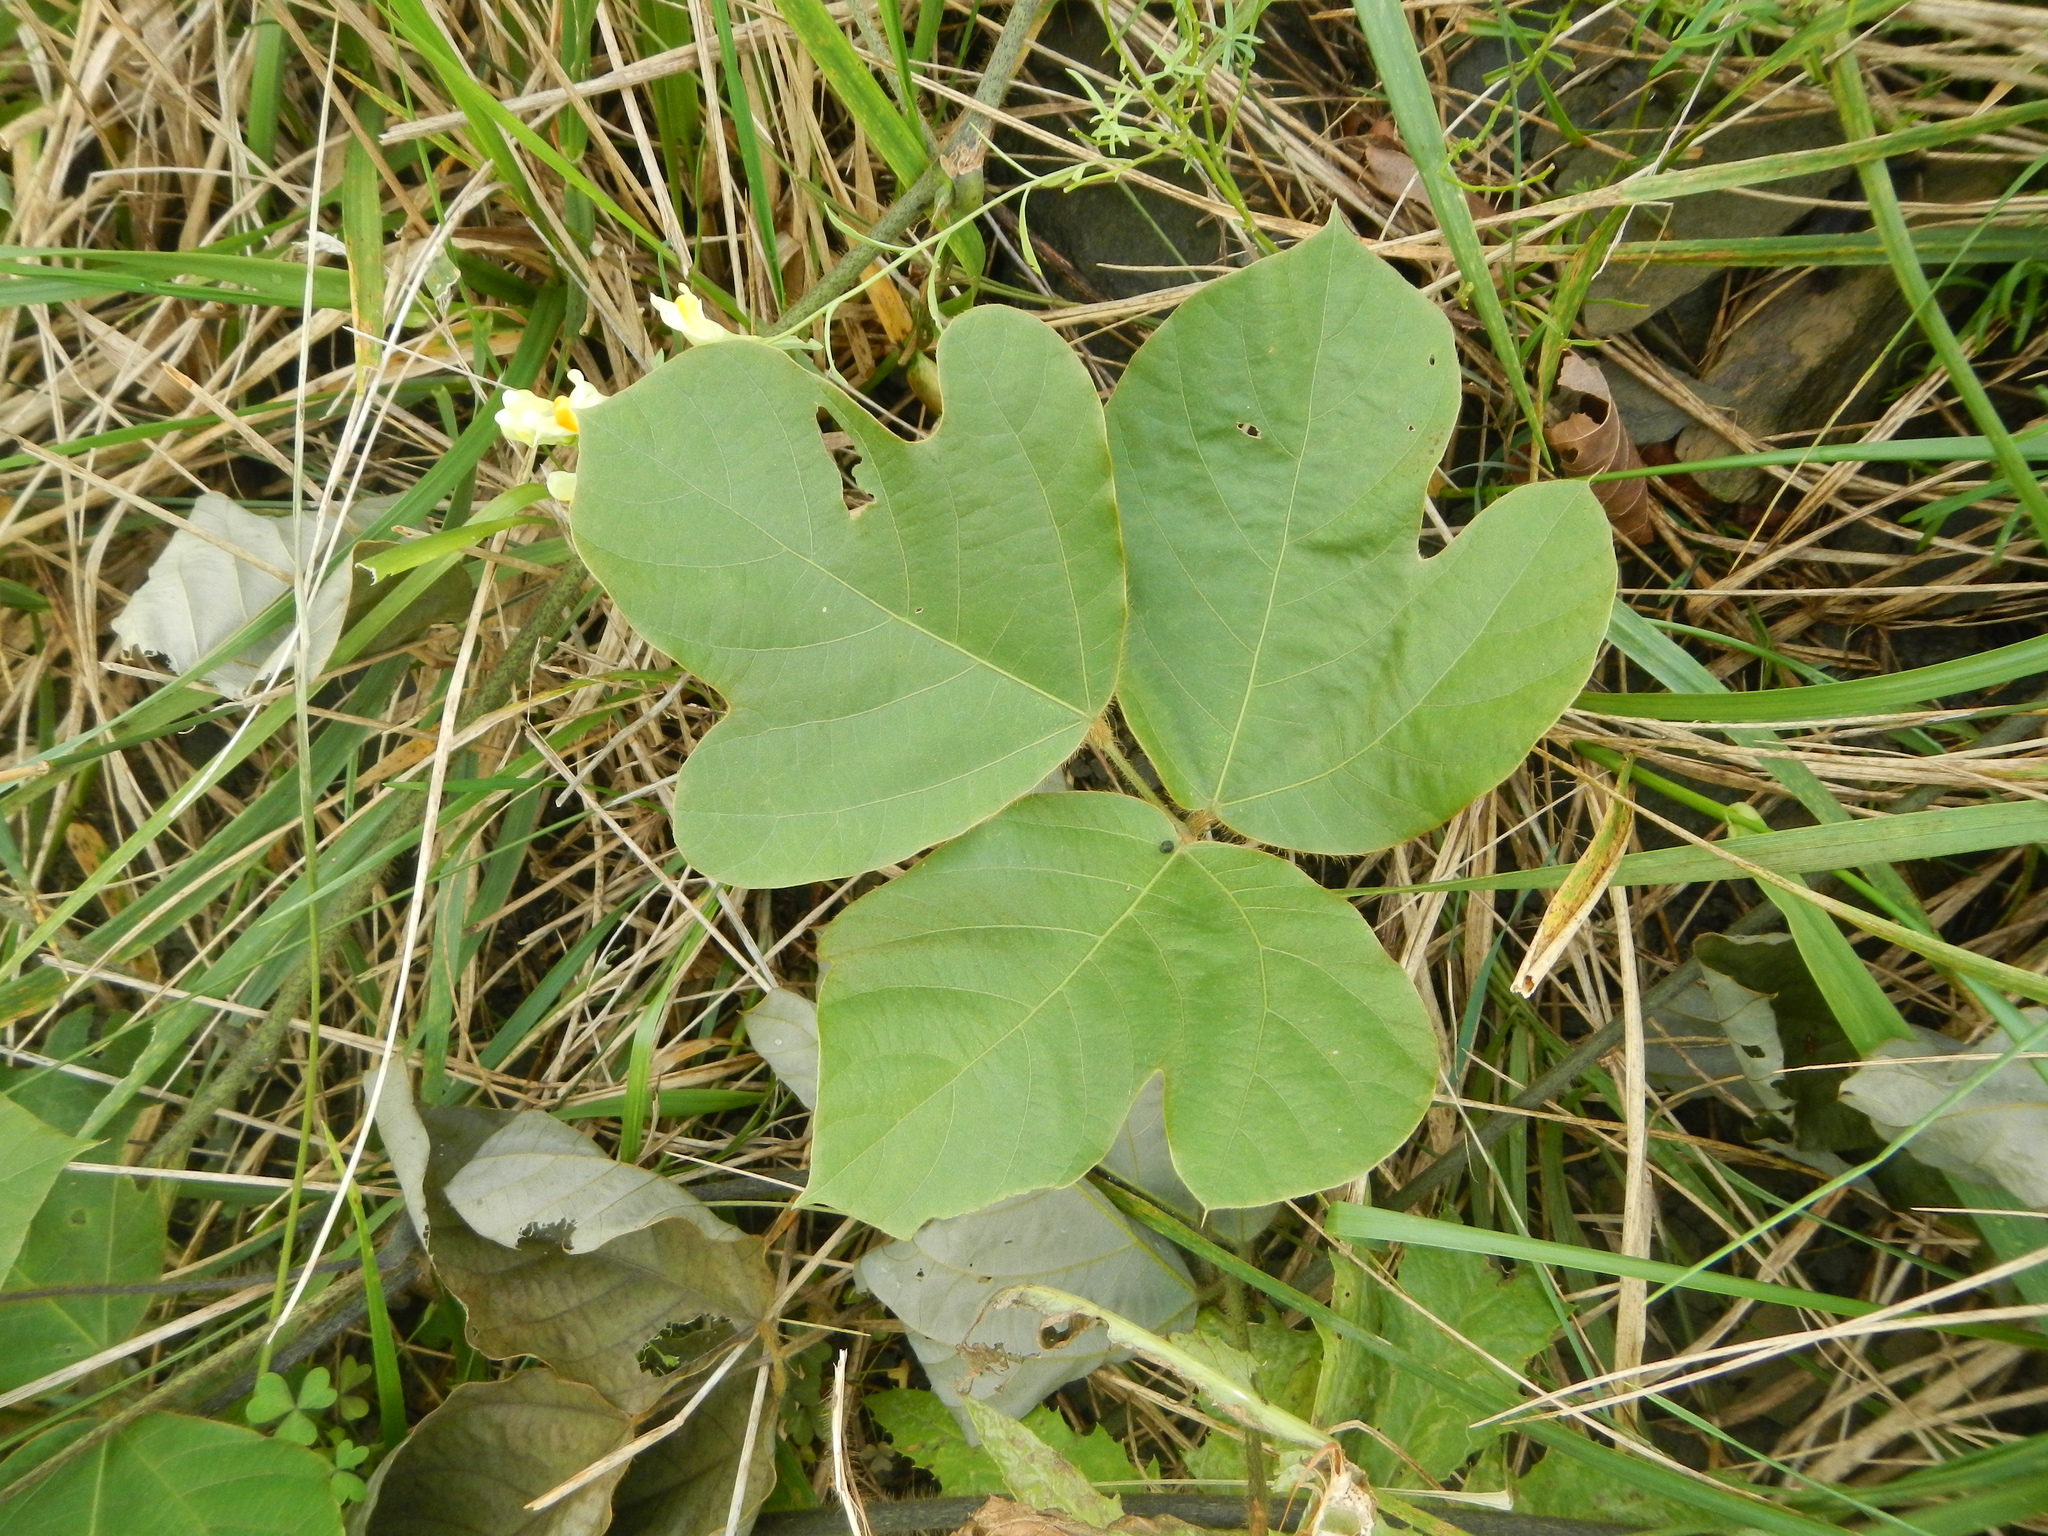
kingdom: Plantae
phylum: Tracheophyta
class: Magnoliopsida
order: Fabales
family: Fabaceae
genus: Pueraria
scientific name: Pueraria montana
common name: Kudzu
